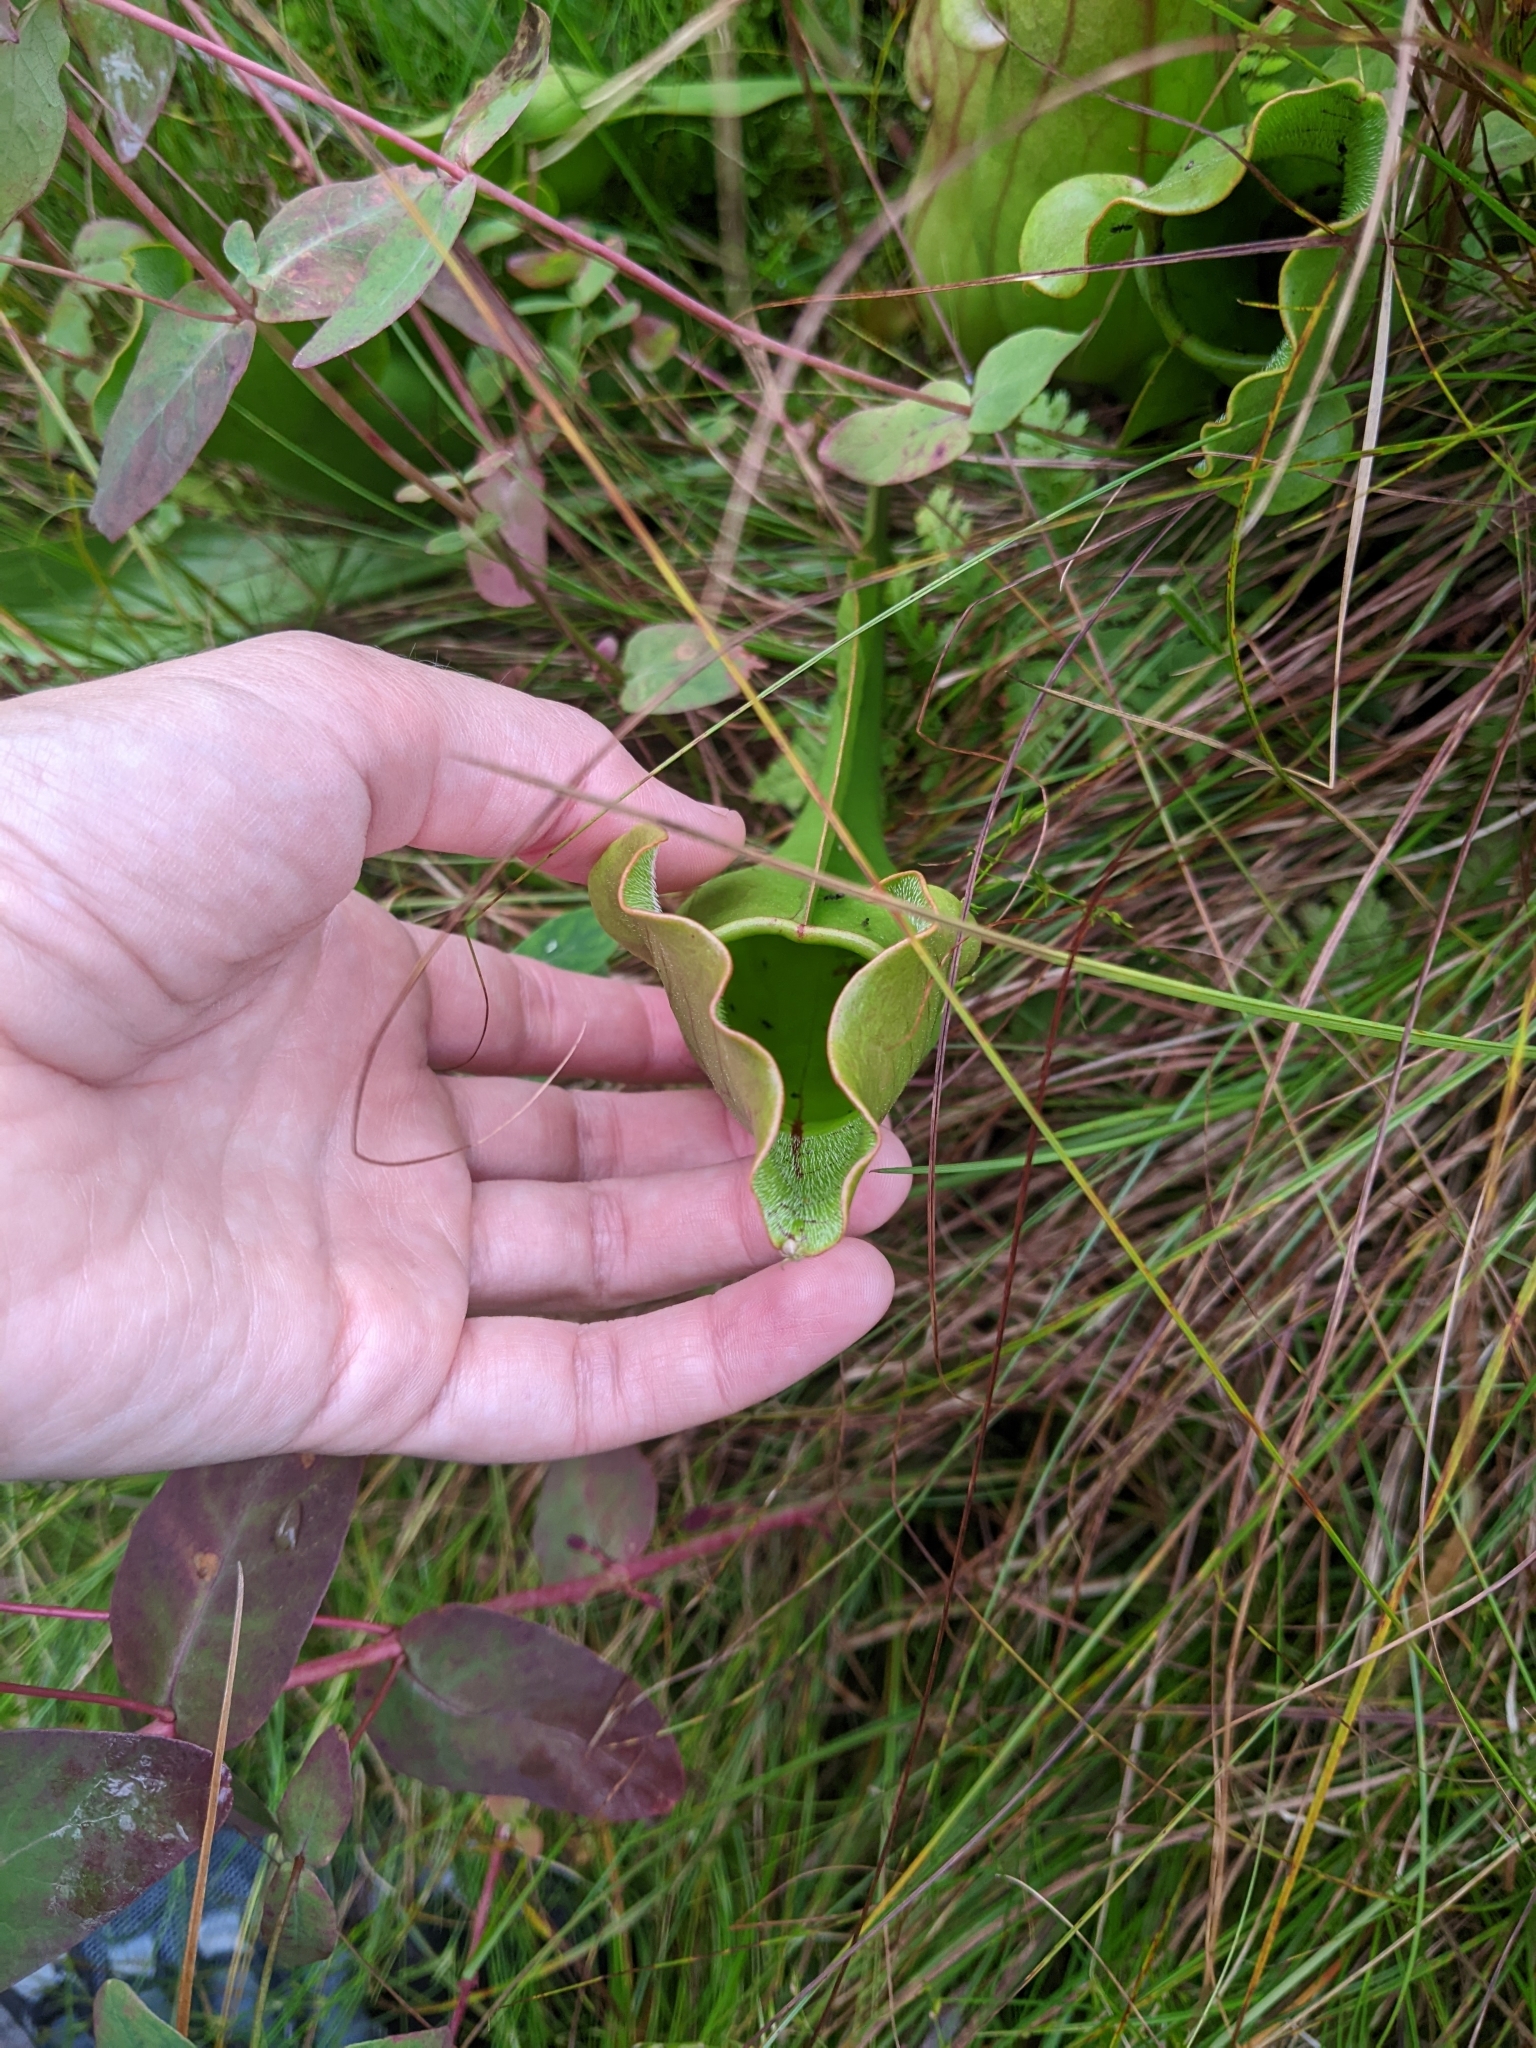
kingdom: Plantae
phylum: Tracheophyta
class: Magnoliopsida
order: Ericales
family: Sarraceniaceae
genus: Sarracenia
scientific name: Sarracenia purpurea
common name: Pitcherplant
